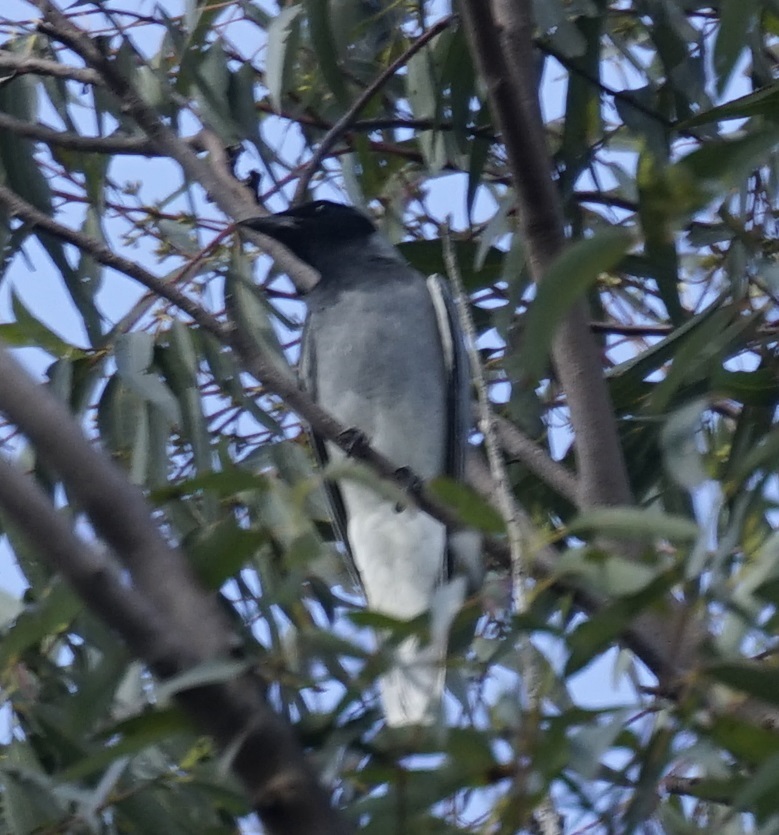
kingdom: Animalia
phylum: Chordata
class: Aves
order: Passeriformes
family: Campephagidae
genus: Coracina
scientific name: Coracina novaehollandiae
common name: Black-faced cuckooshrike
